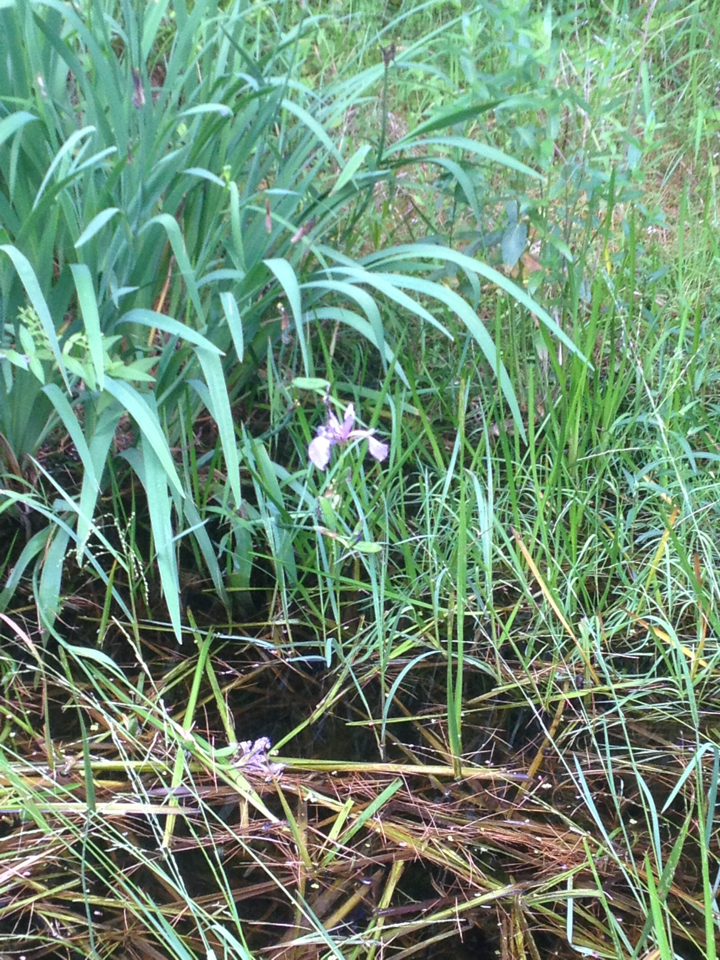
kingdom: Plantae
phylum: Tracheophyta
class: Liliopsida
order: Asparagales
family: Iridaceae
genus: Iris
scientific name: Iris versicolor
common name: Purple iris
